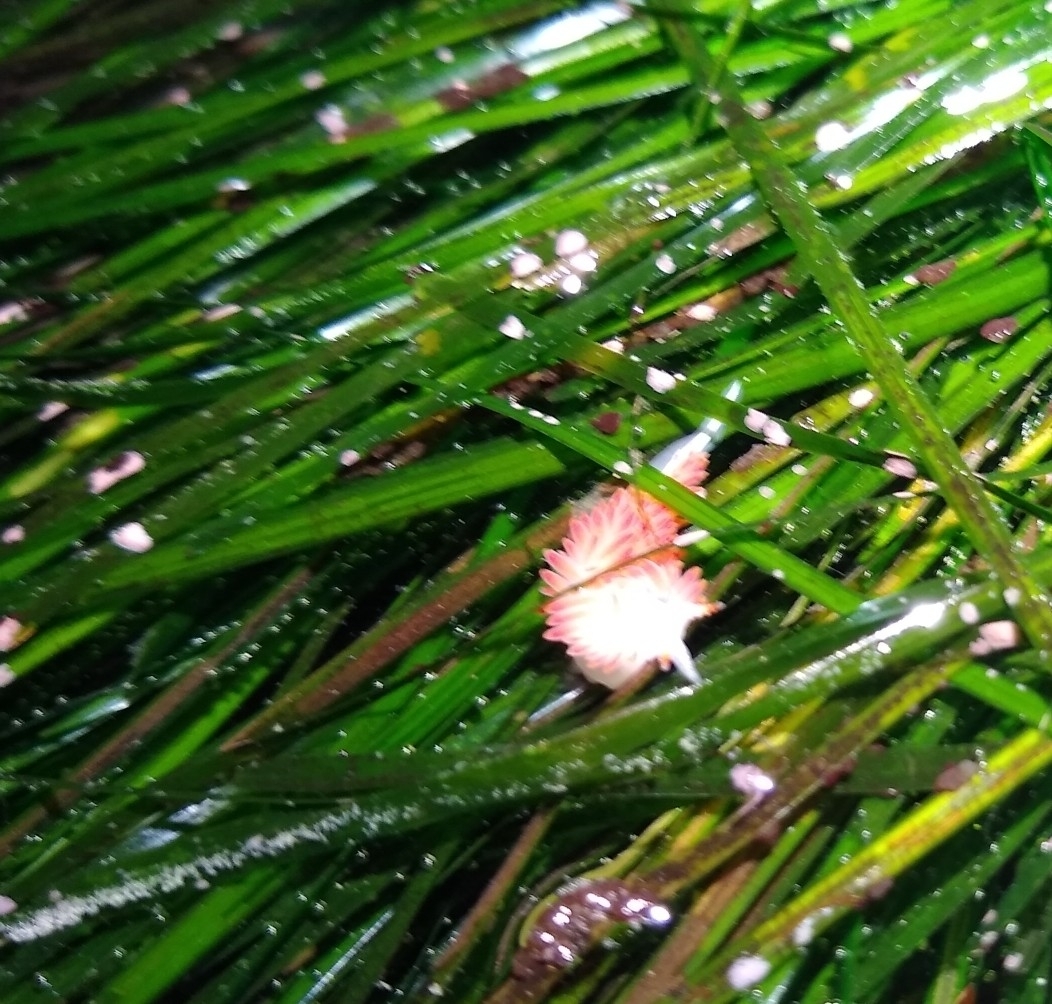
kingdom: Animalia
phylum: Mollusca
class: Gastropoda
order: Nudibranchia
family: Coryphellidae
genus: Coryphella
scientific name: Coryphella trilineata
